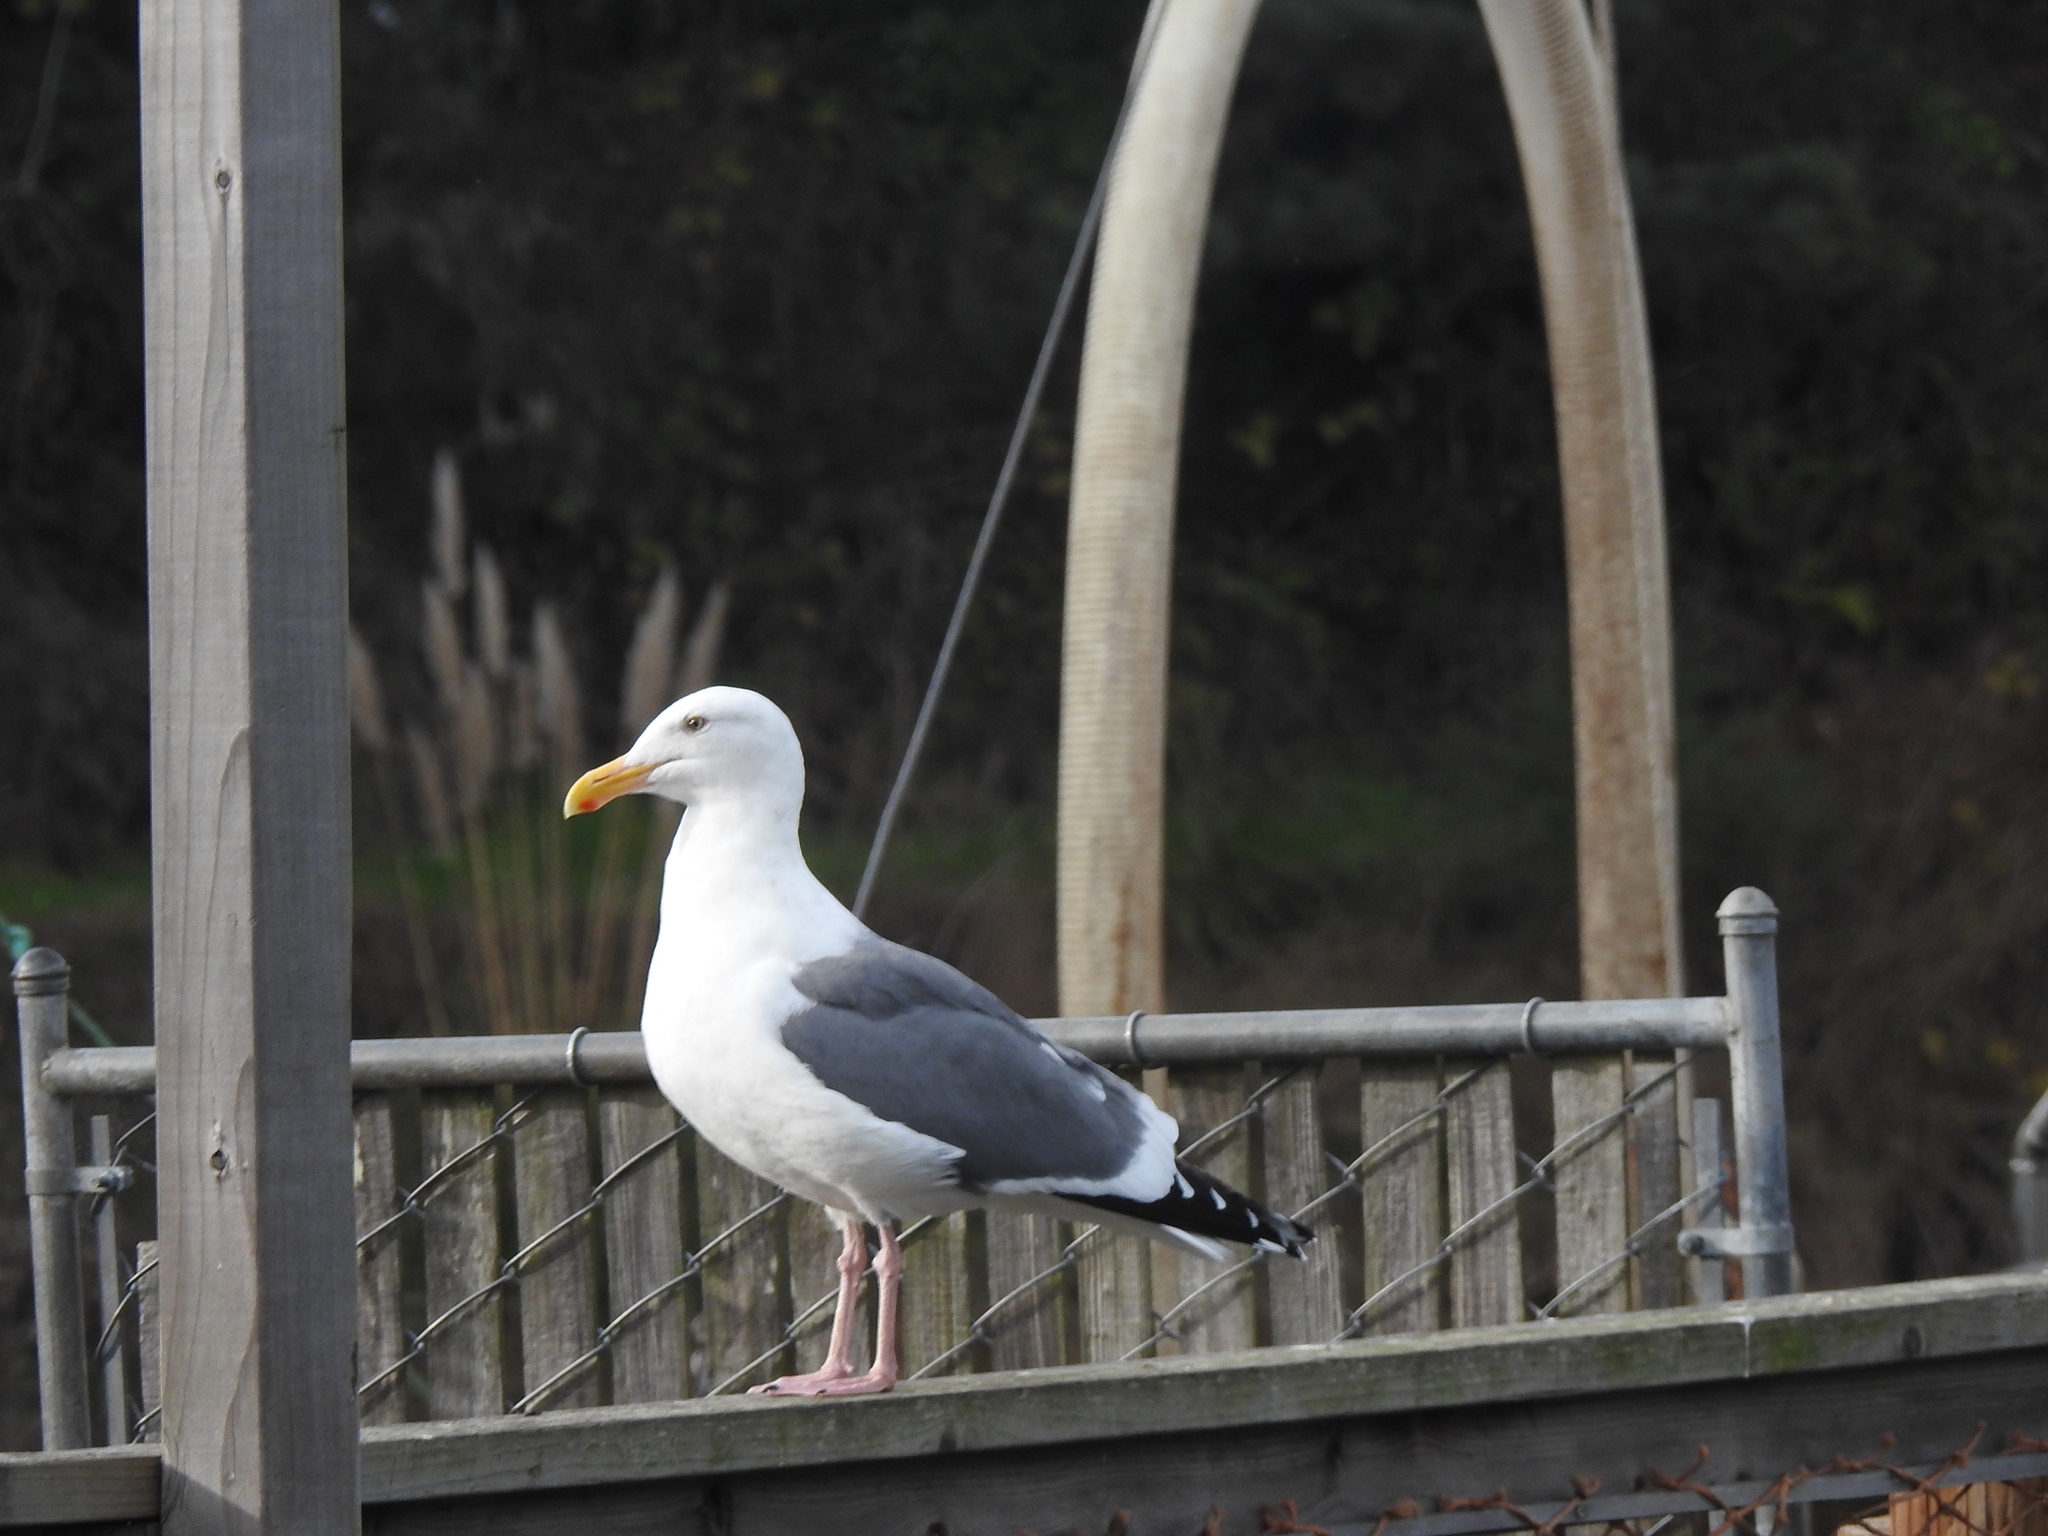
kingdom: Animalia
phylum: Chordata
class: Aves
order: Charadriiformes
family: Laridae
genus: Larus
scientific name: Larus occidentalis
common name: Western gull
